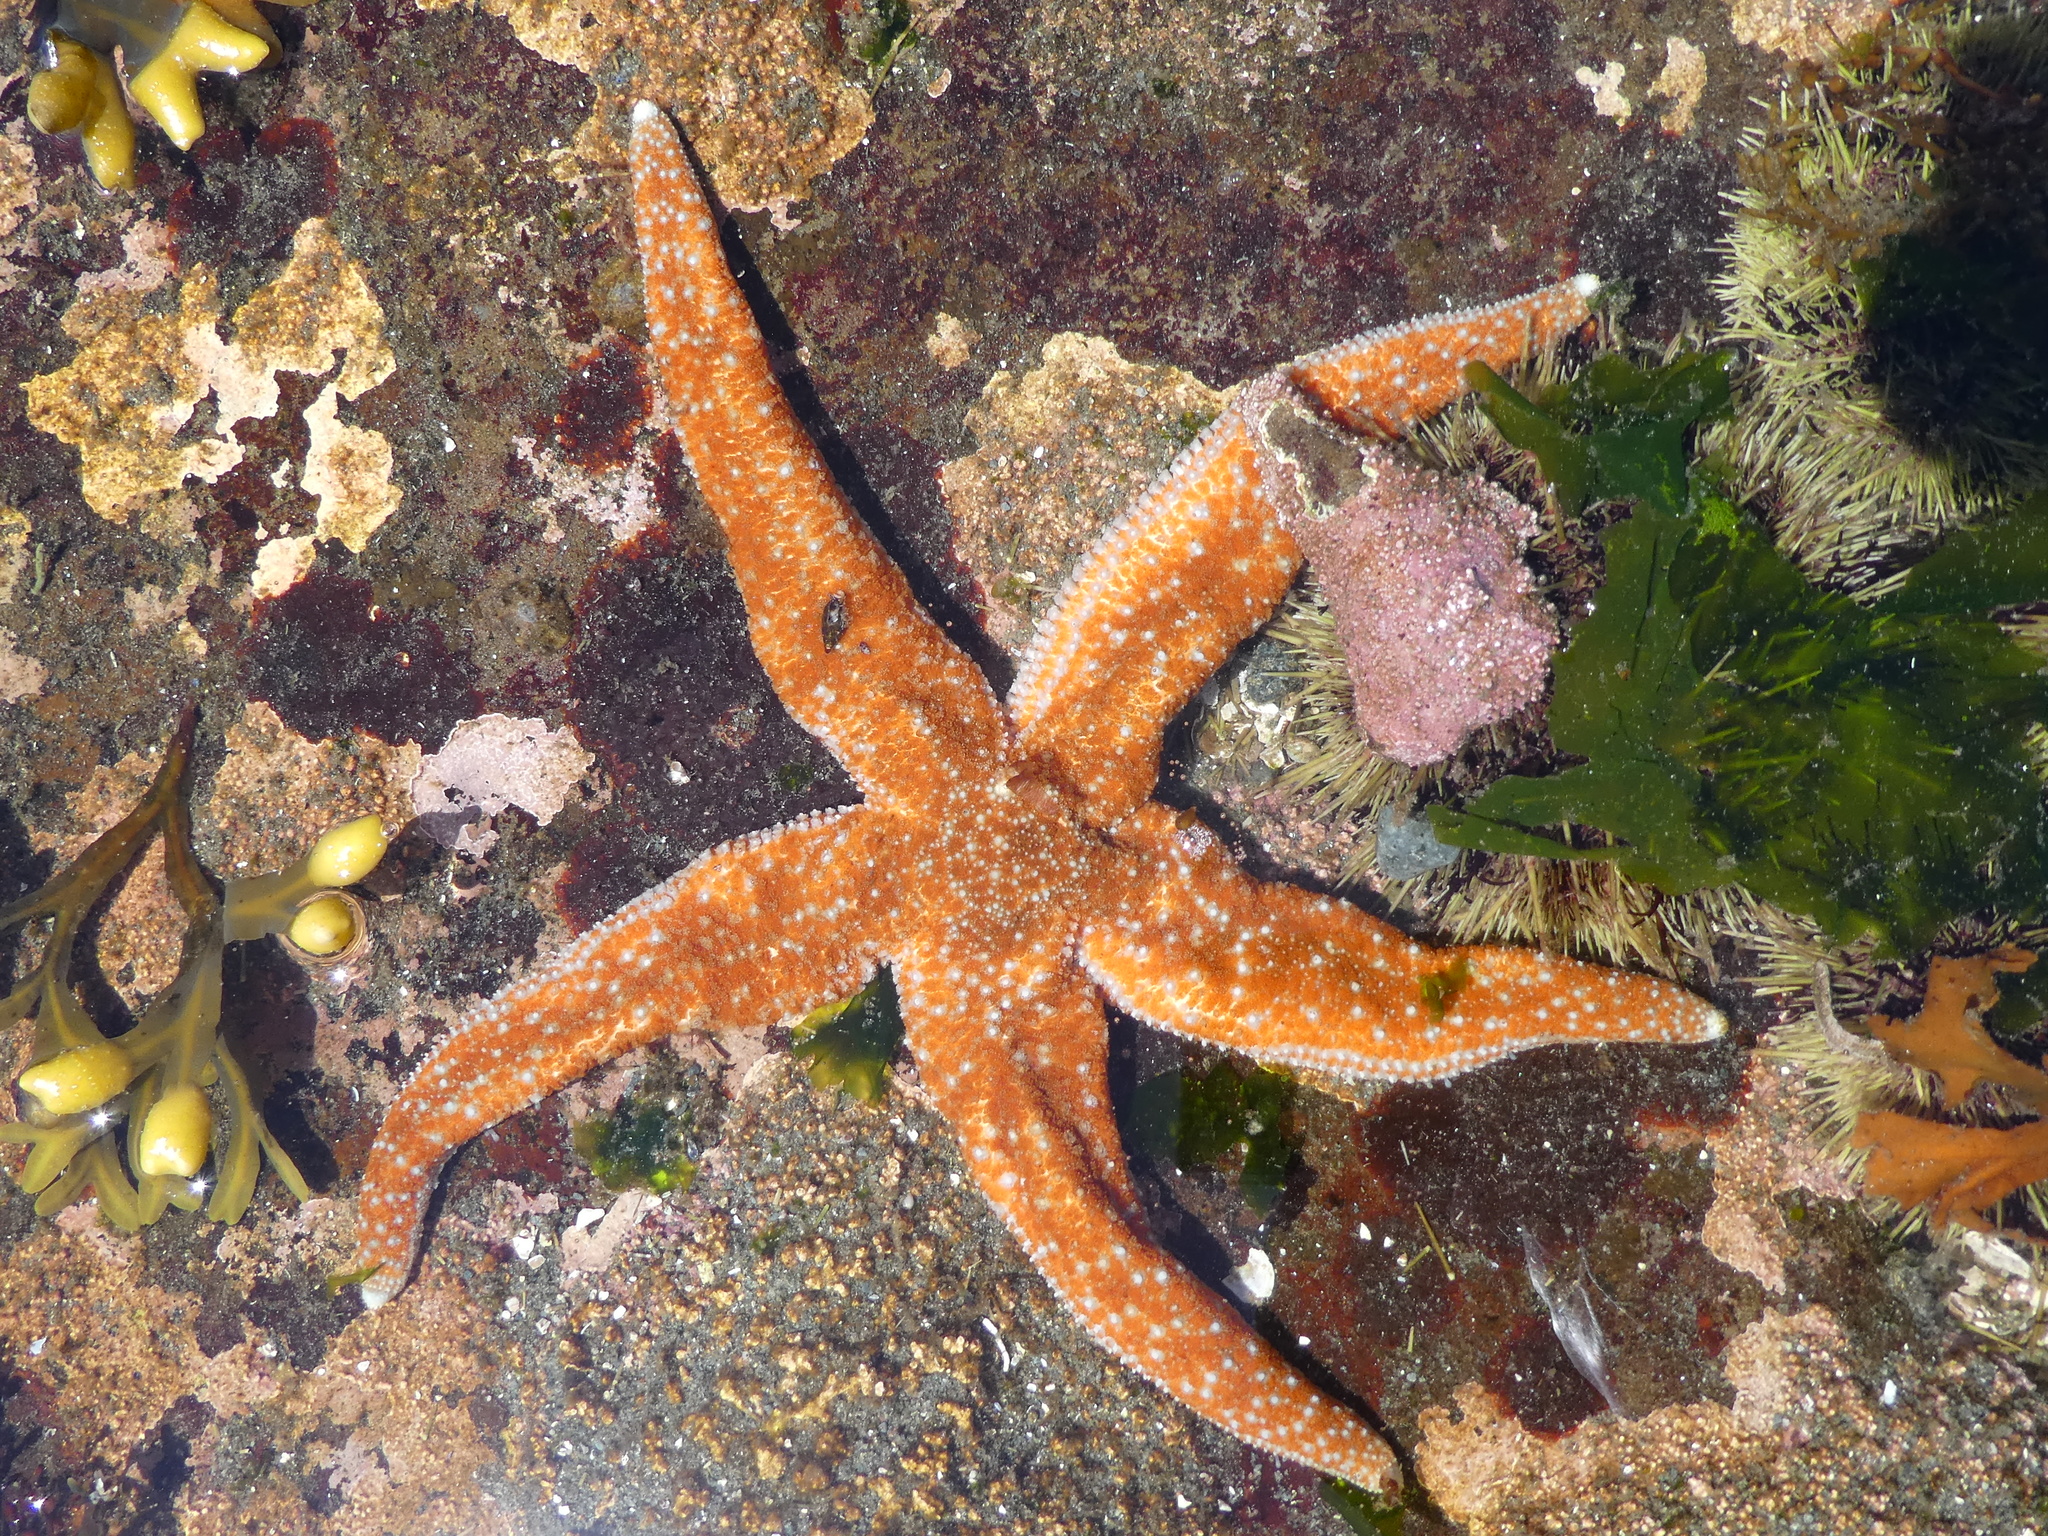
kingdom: Animalia
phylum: Echinodermata
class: Asteroidea
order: Forcipulatida
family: Asteriidae
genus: Evasterias
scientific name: Evasterias troschelii
